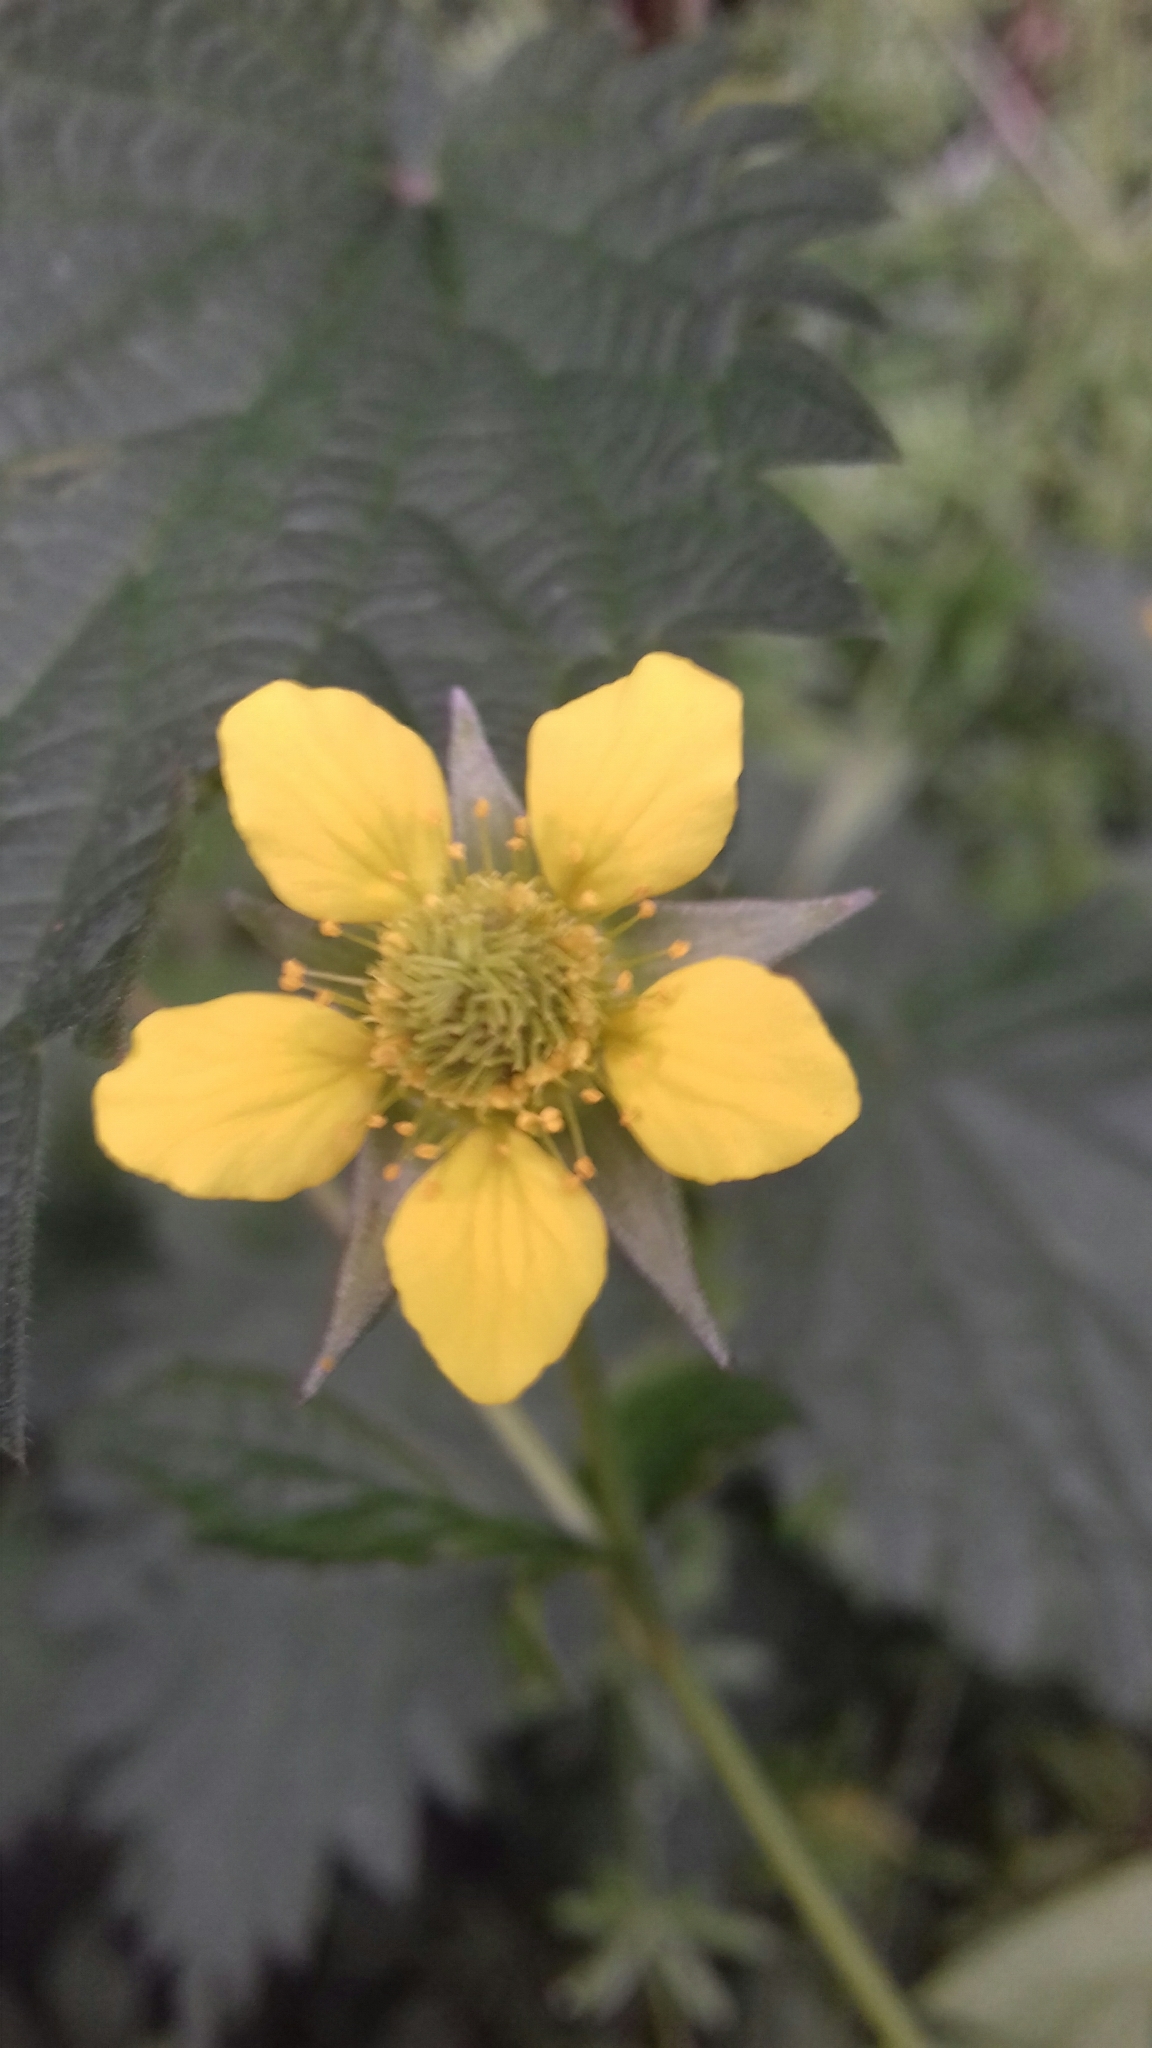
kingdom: Plantae
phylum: Tracheophyta
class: Magnoliopsida
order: Rosales
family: Rosaceae
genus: Geum
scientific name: Geum urbanum
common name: Wood avens
